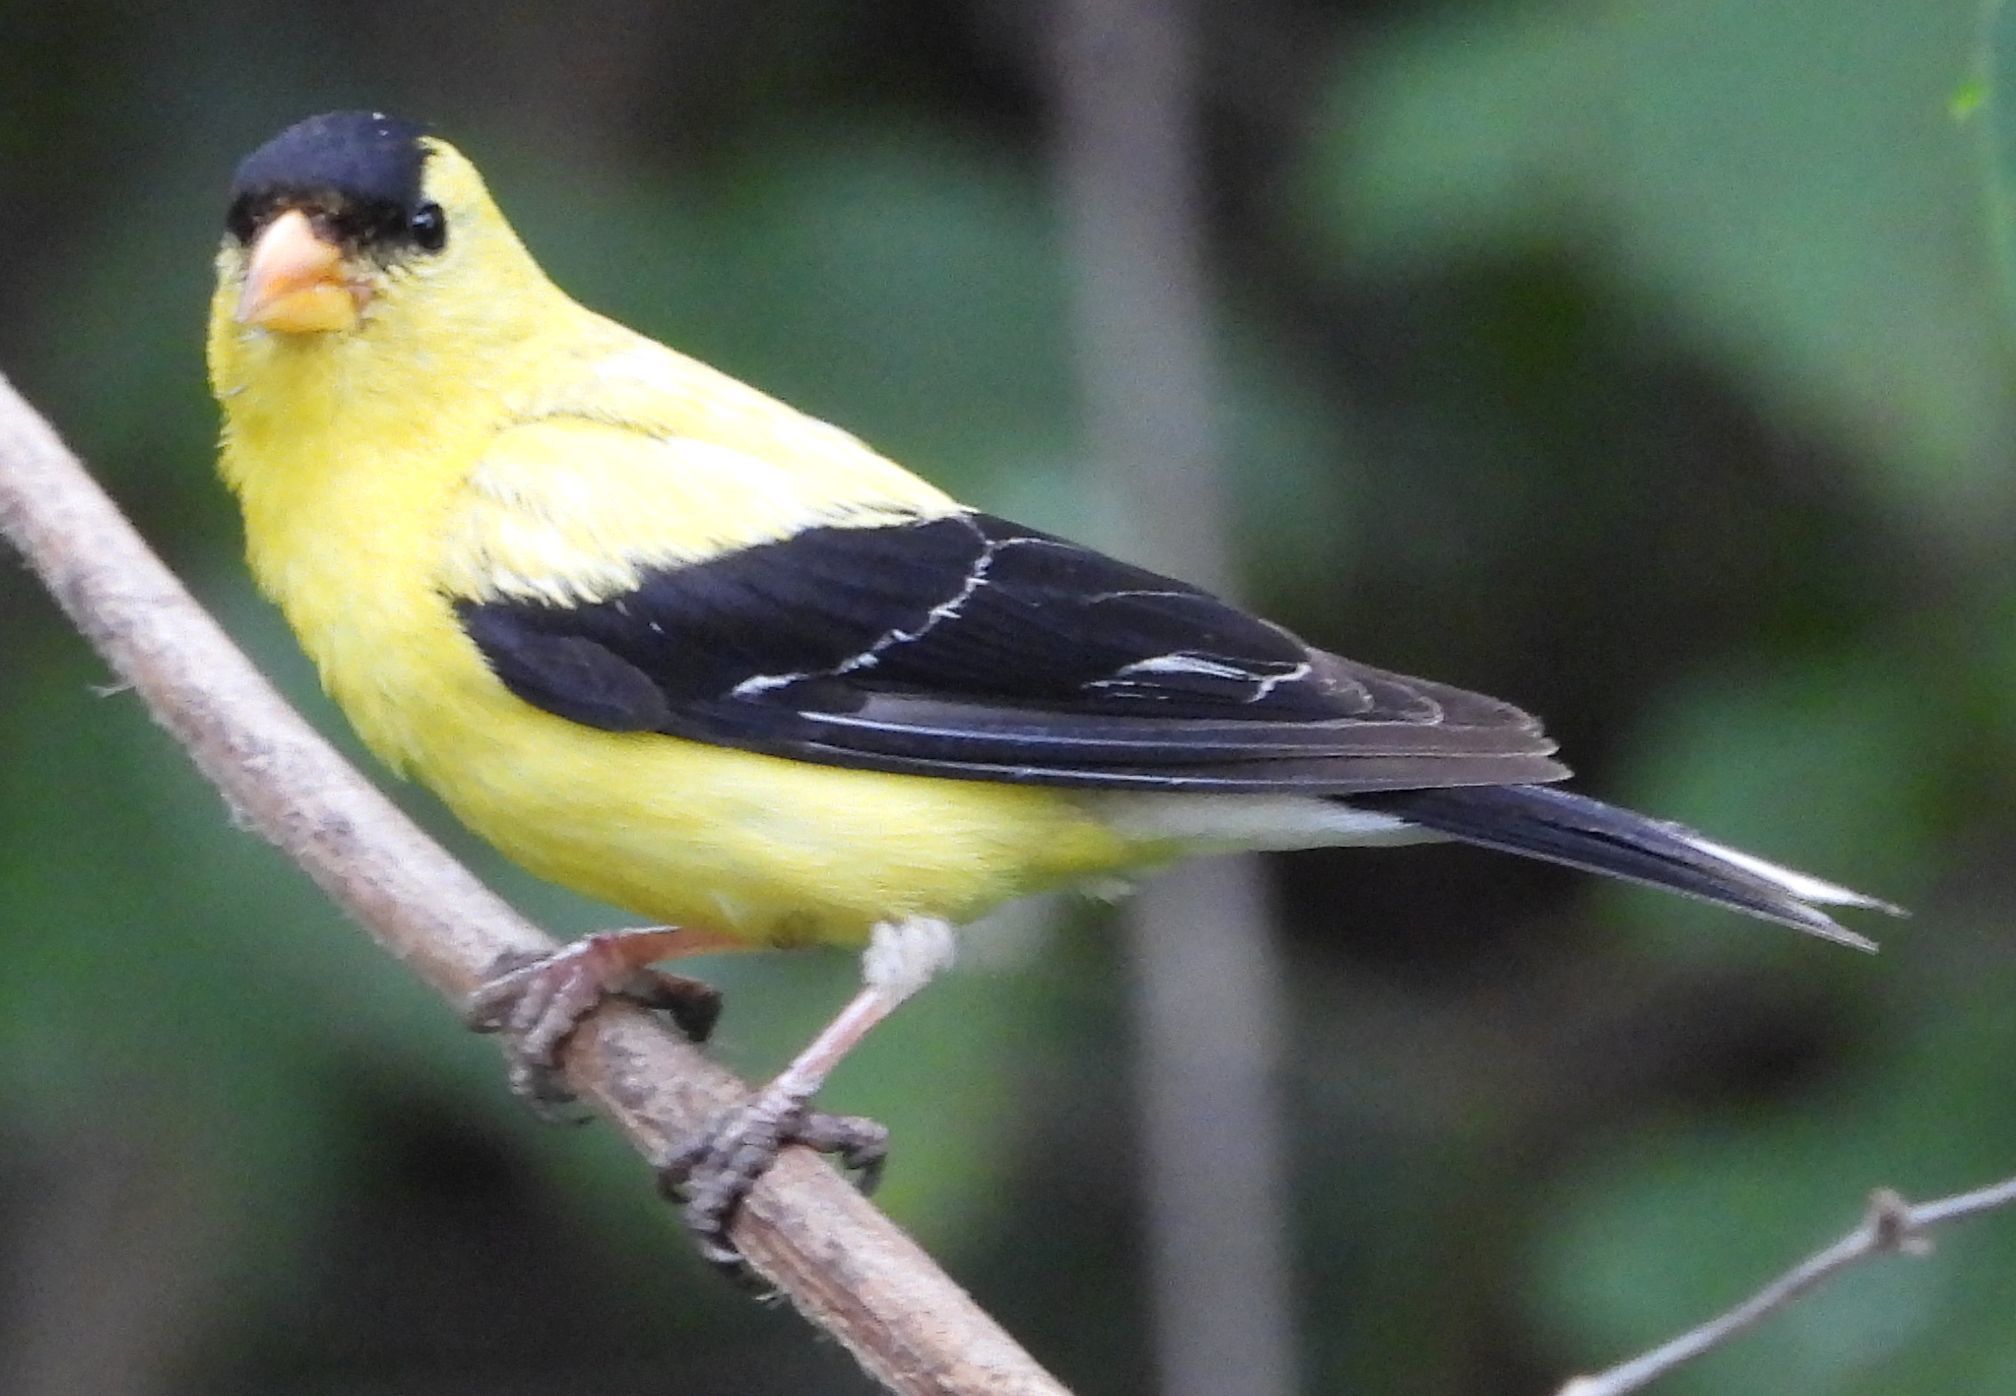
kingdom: Animalia
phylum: Chordata
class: Aves
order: Passeriformes
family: Fringillidae
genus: Spinus
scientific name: Spinus tristis
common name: American goldfinch
